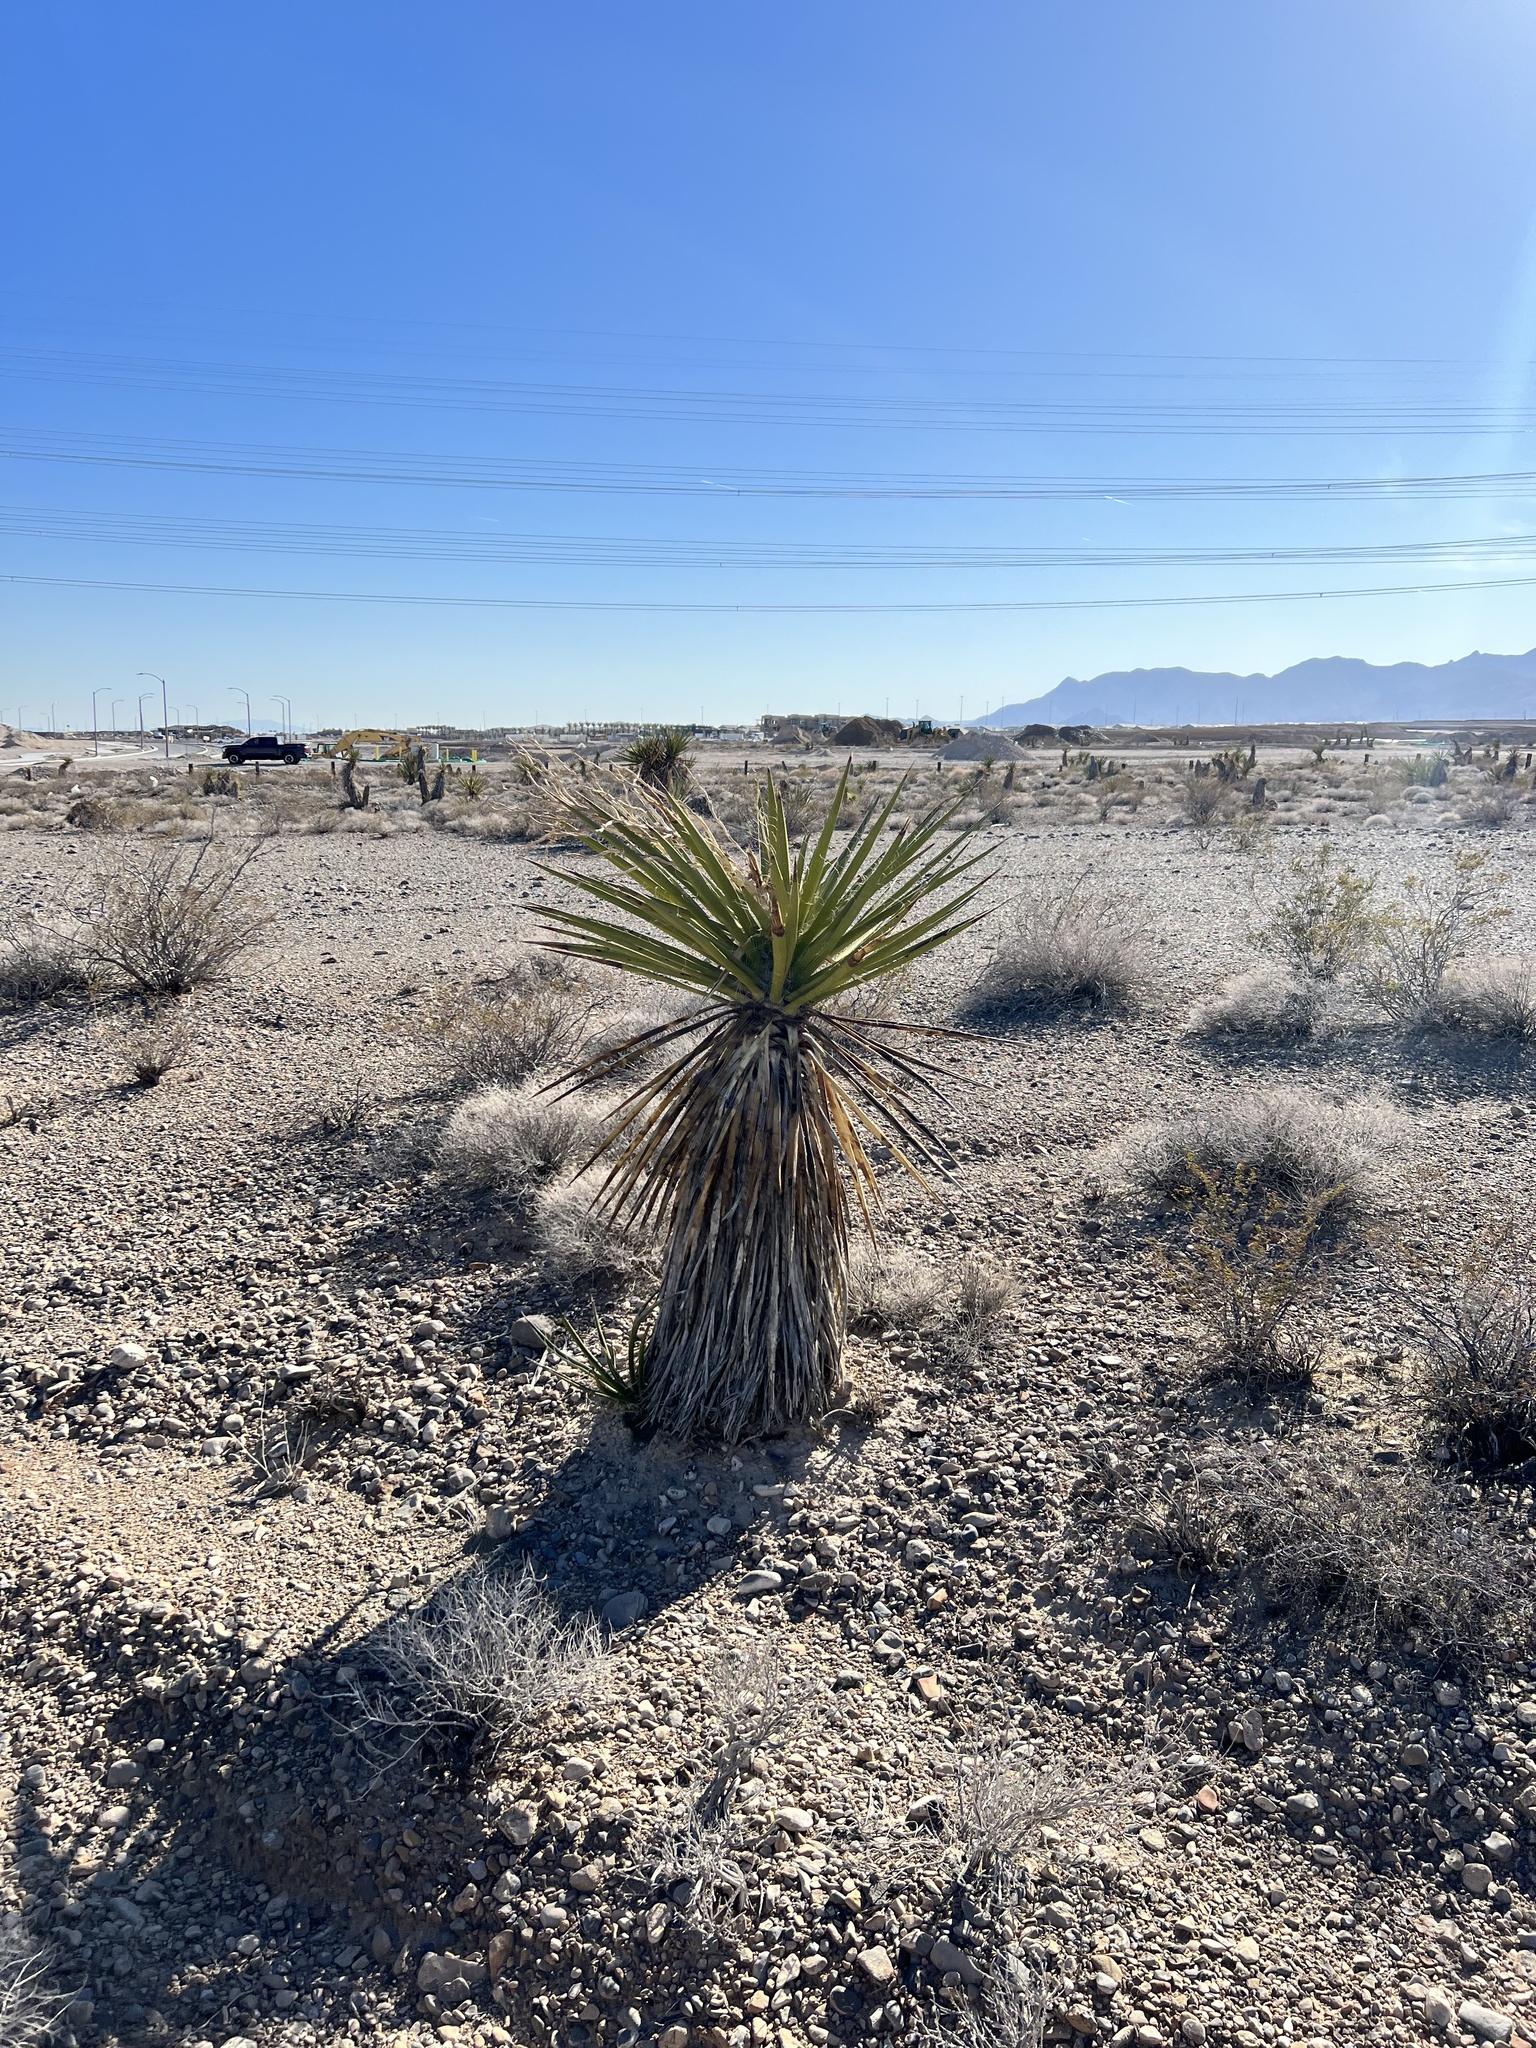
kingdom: Plantae
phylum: Tracheophyta
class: Liliopsida
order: Asparagales
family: Asparagaceae
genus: Yucca
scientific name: Yucca schidigera
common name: Mojave yucca
